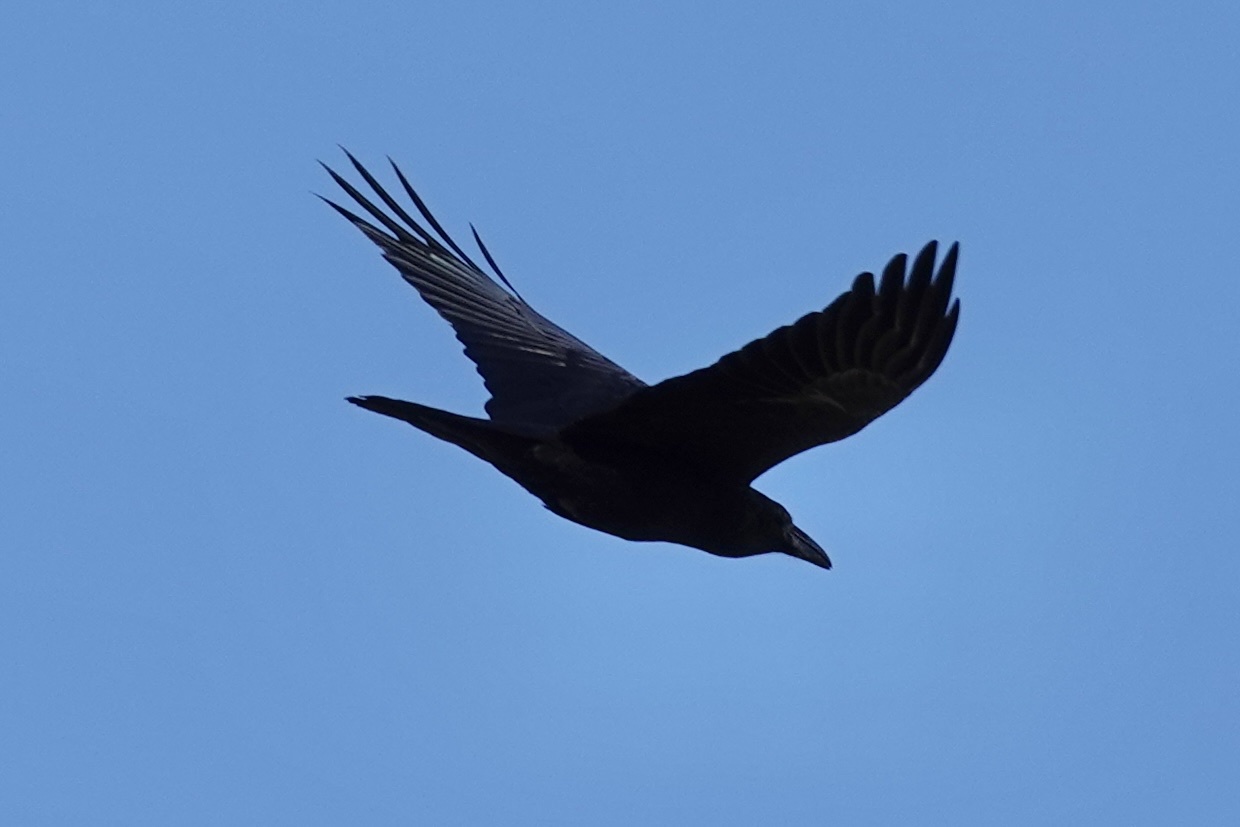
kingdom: Animalia
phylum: Chordata
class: Aves
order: Passeriformes
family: Corvidae
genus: Corvus
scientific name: Corvus corax
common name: Common raven
